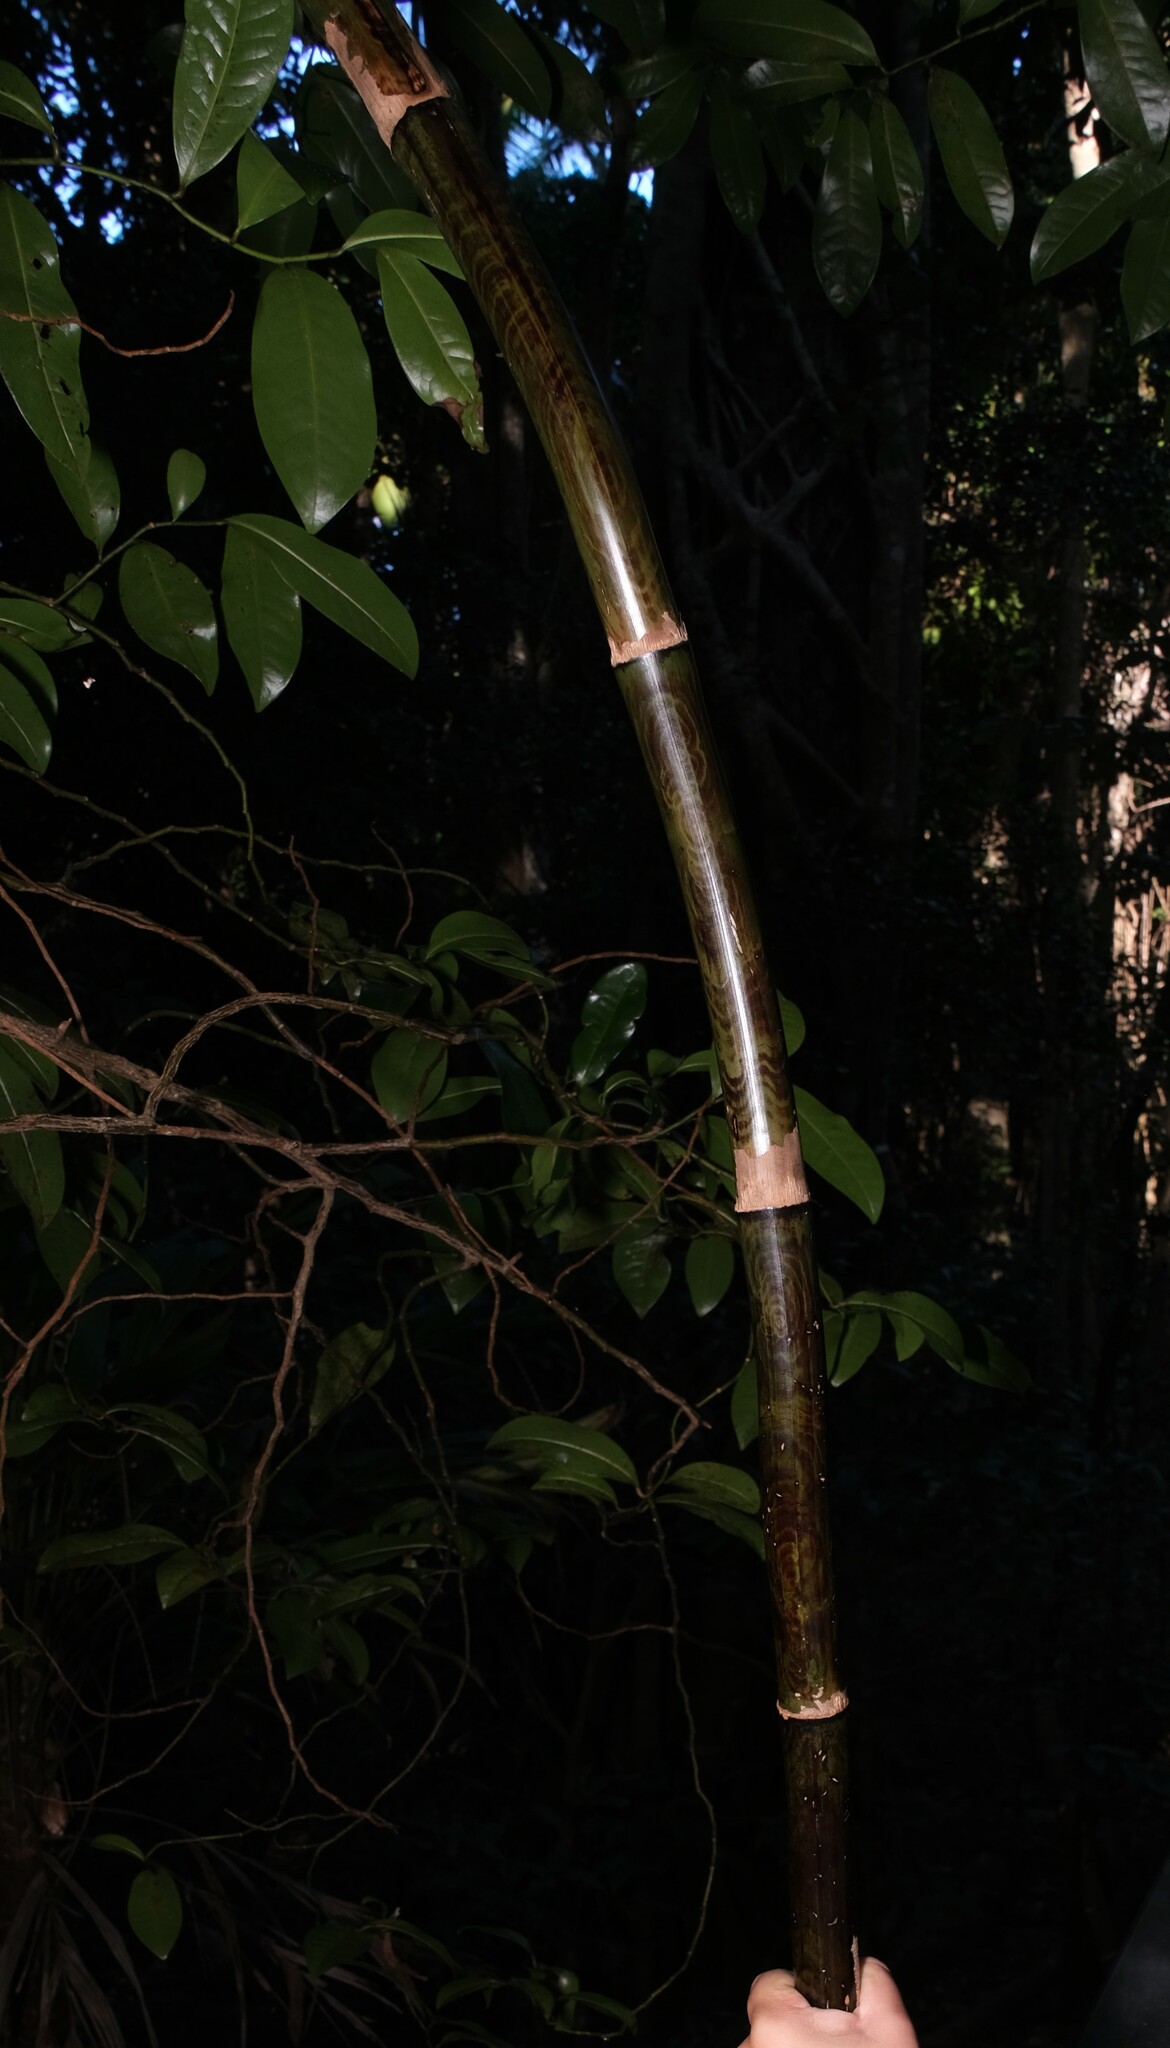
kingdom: Plantae
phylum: Tracheophyta
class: Liliopsida
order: Poales
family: Flagellariaceae
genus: Flagellaria
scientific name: Flagellaria indica
